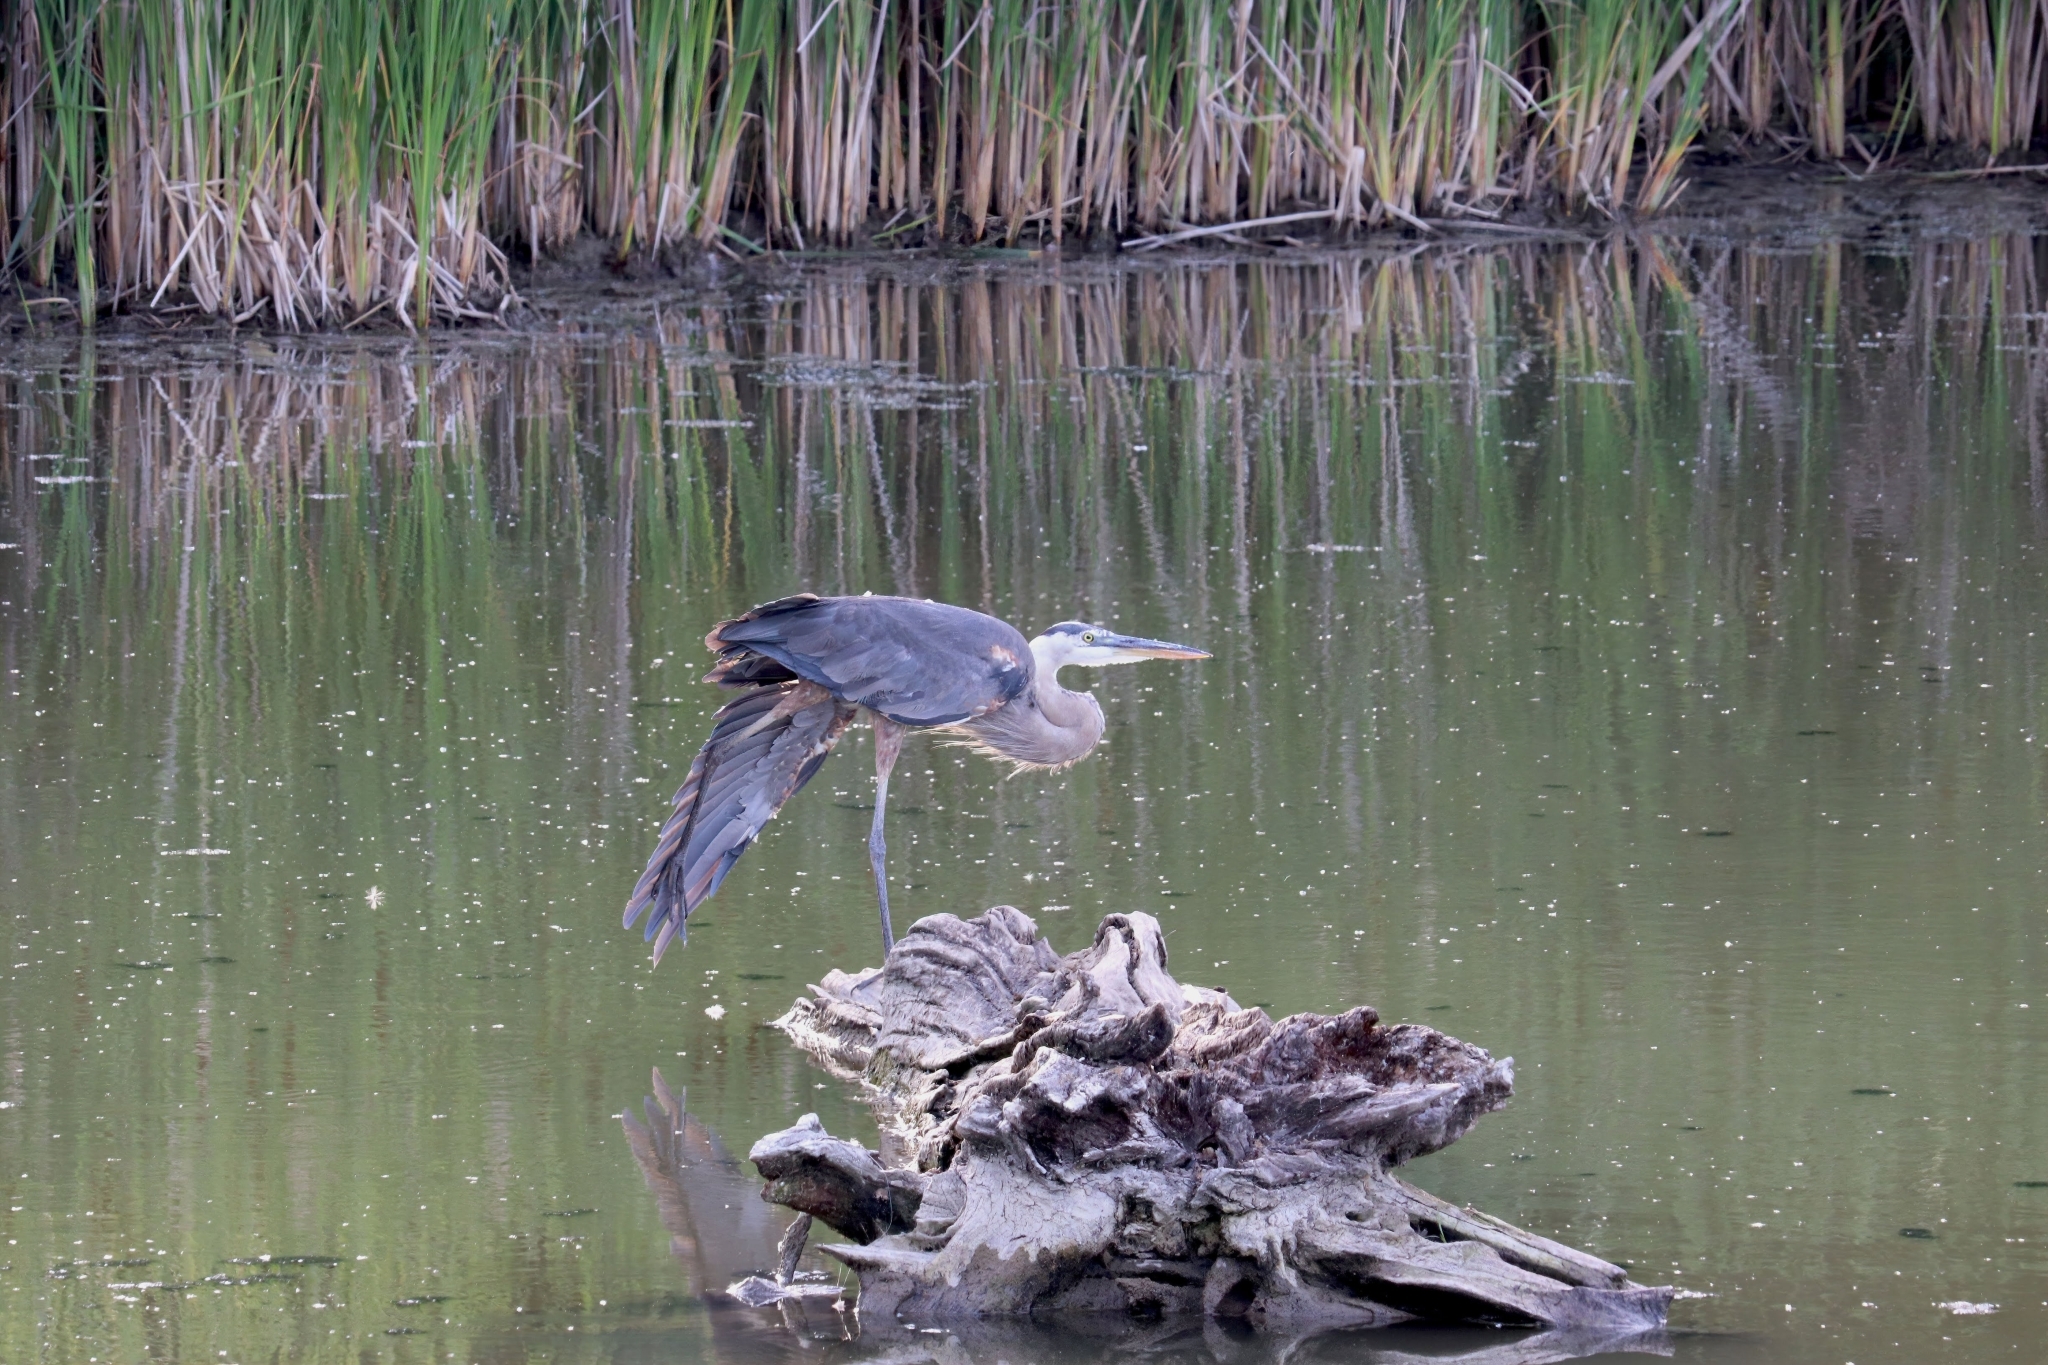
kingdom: Animalia
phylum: Chordata
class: Aves
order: Pelecaniformes
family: Ardeidae
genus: Ardea
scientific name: Ardea herodias
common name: Great blue heron
